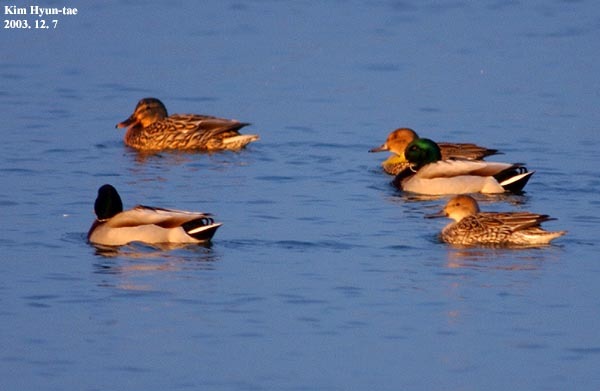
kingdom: Animalia
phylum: Chordata
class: Aves
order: Anseriformes
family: Anatidae
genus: Anas
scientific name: Anas platyrhynchos
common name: Mallard
